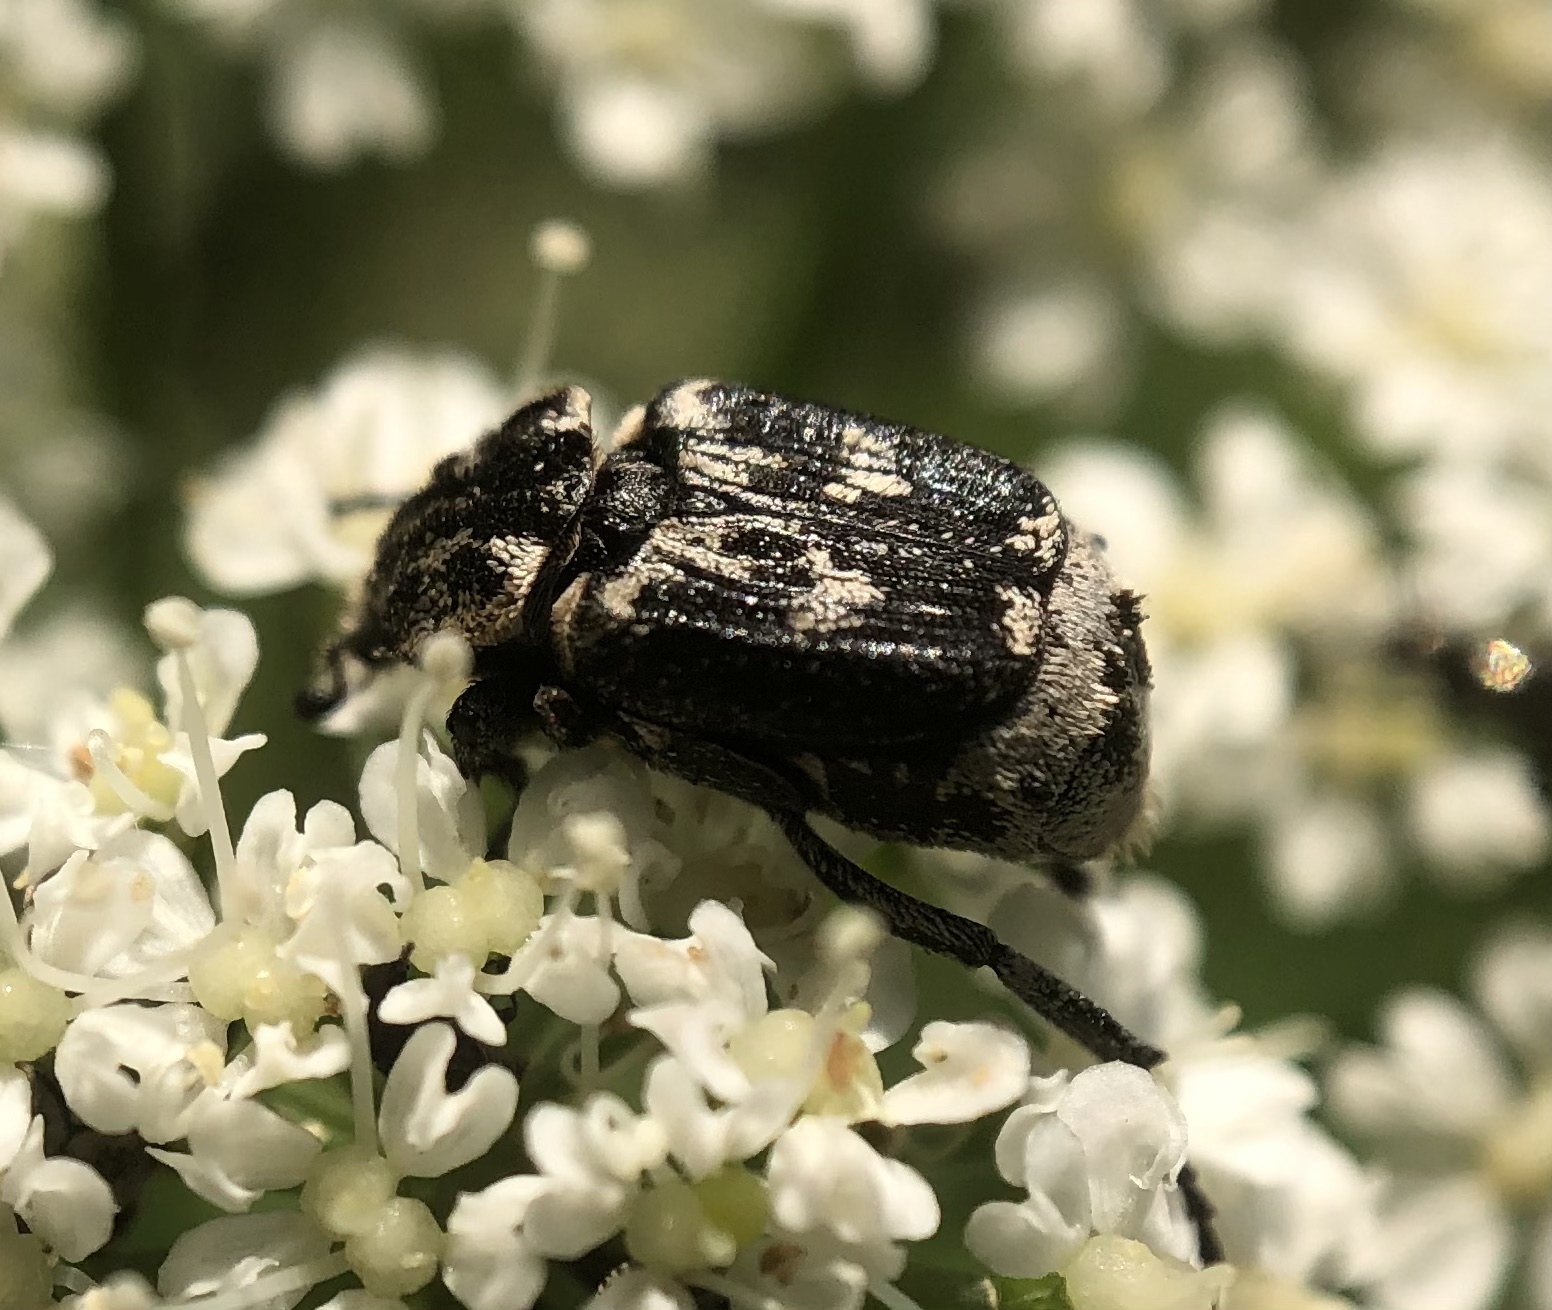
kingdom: Animalia
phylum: Arthropoda
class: Insecta
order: Coleoptera
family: Scarabaeidae
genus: Valgus
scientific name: Valgus hemipterus
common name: Bug flower chafer
